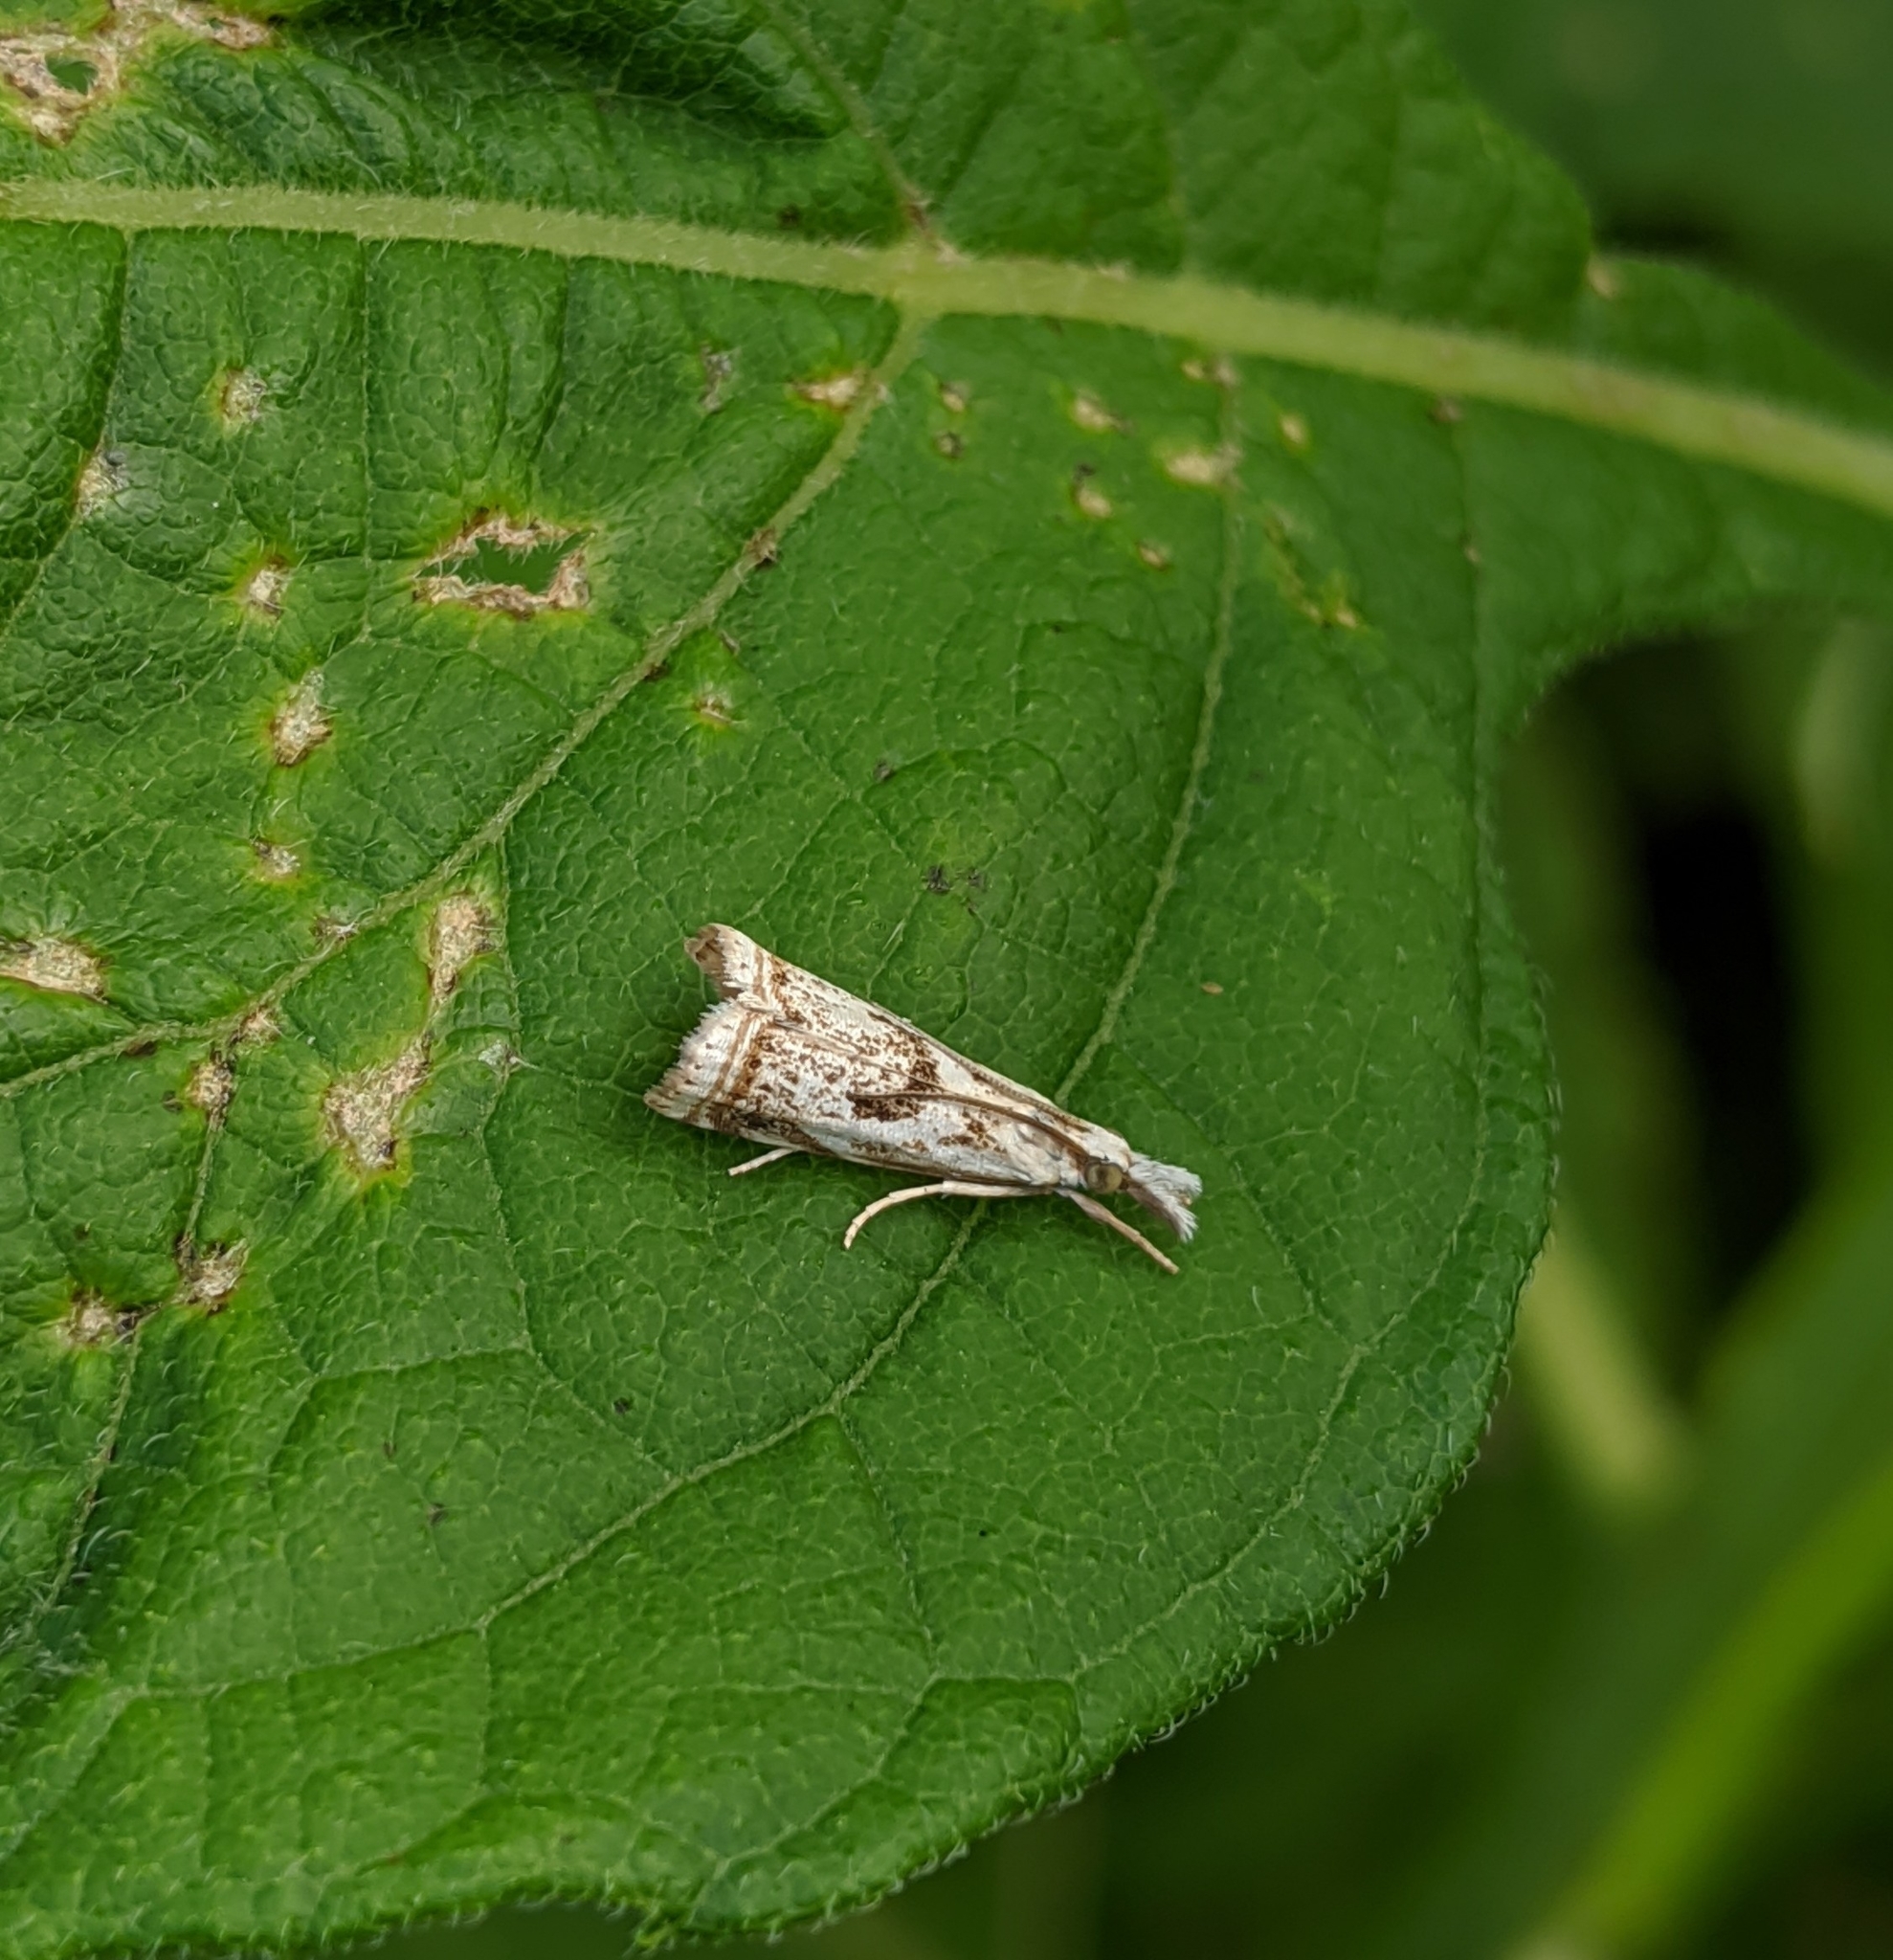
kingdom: Animalia
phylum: Arthropoda
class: Insecta
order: Lepidoptera
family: Crambidae
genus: Microcrambus
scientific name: Microcrambus elegans
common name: Elegant grass-veneer
